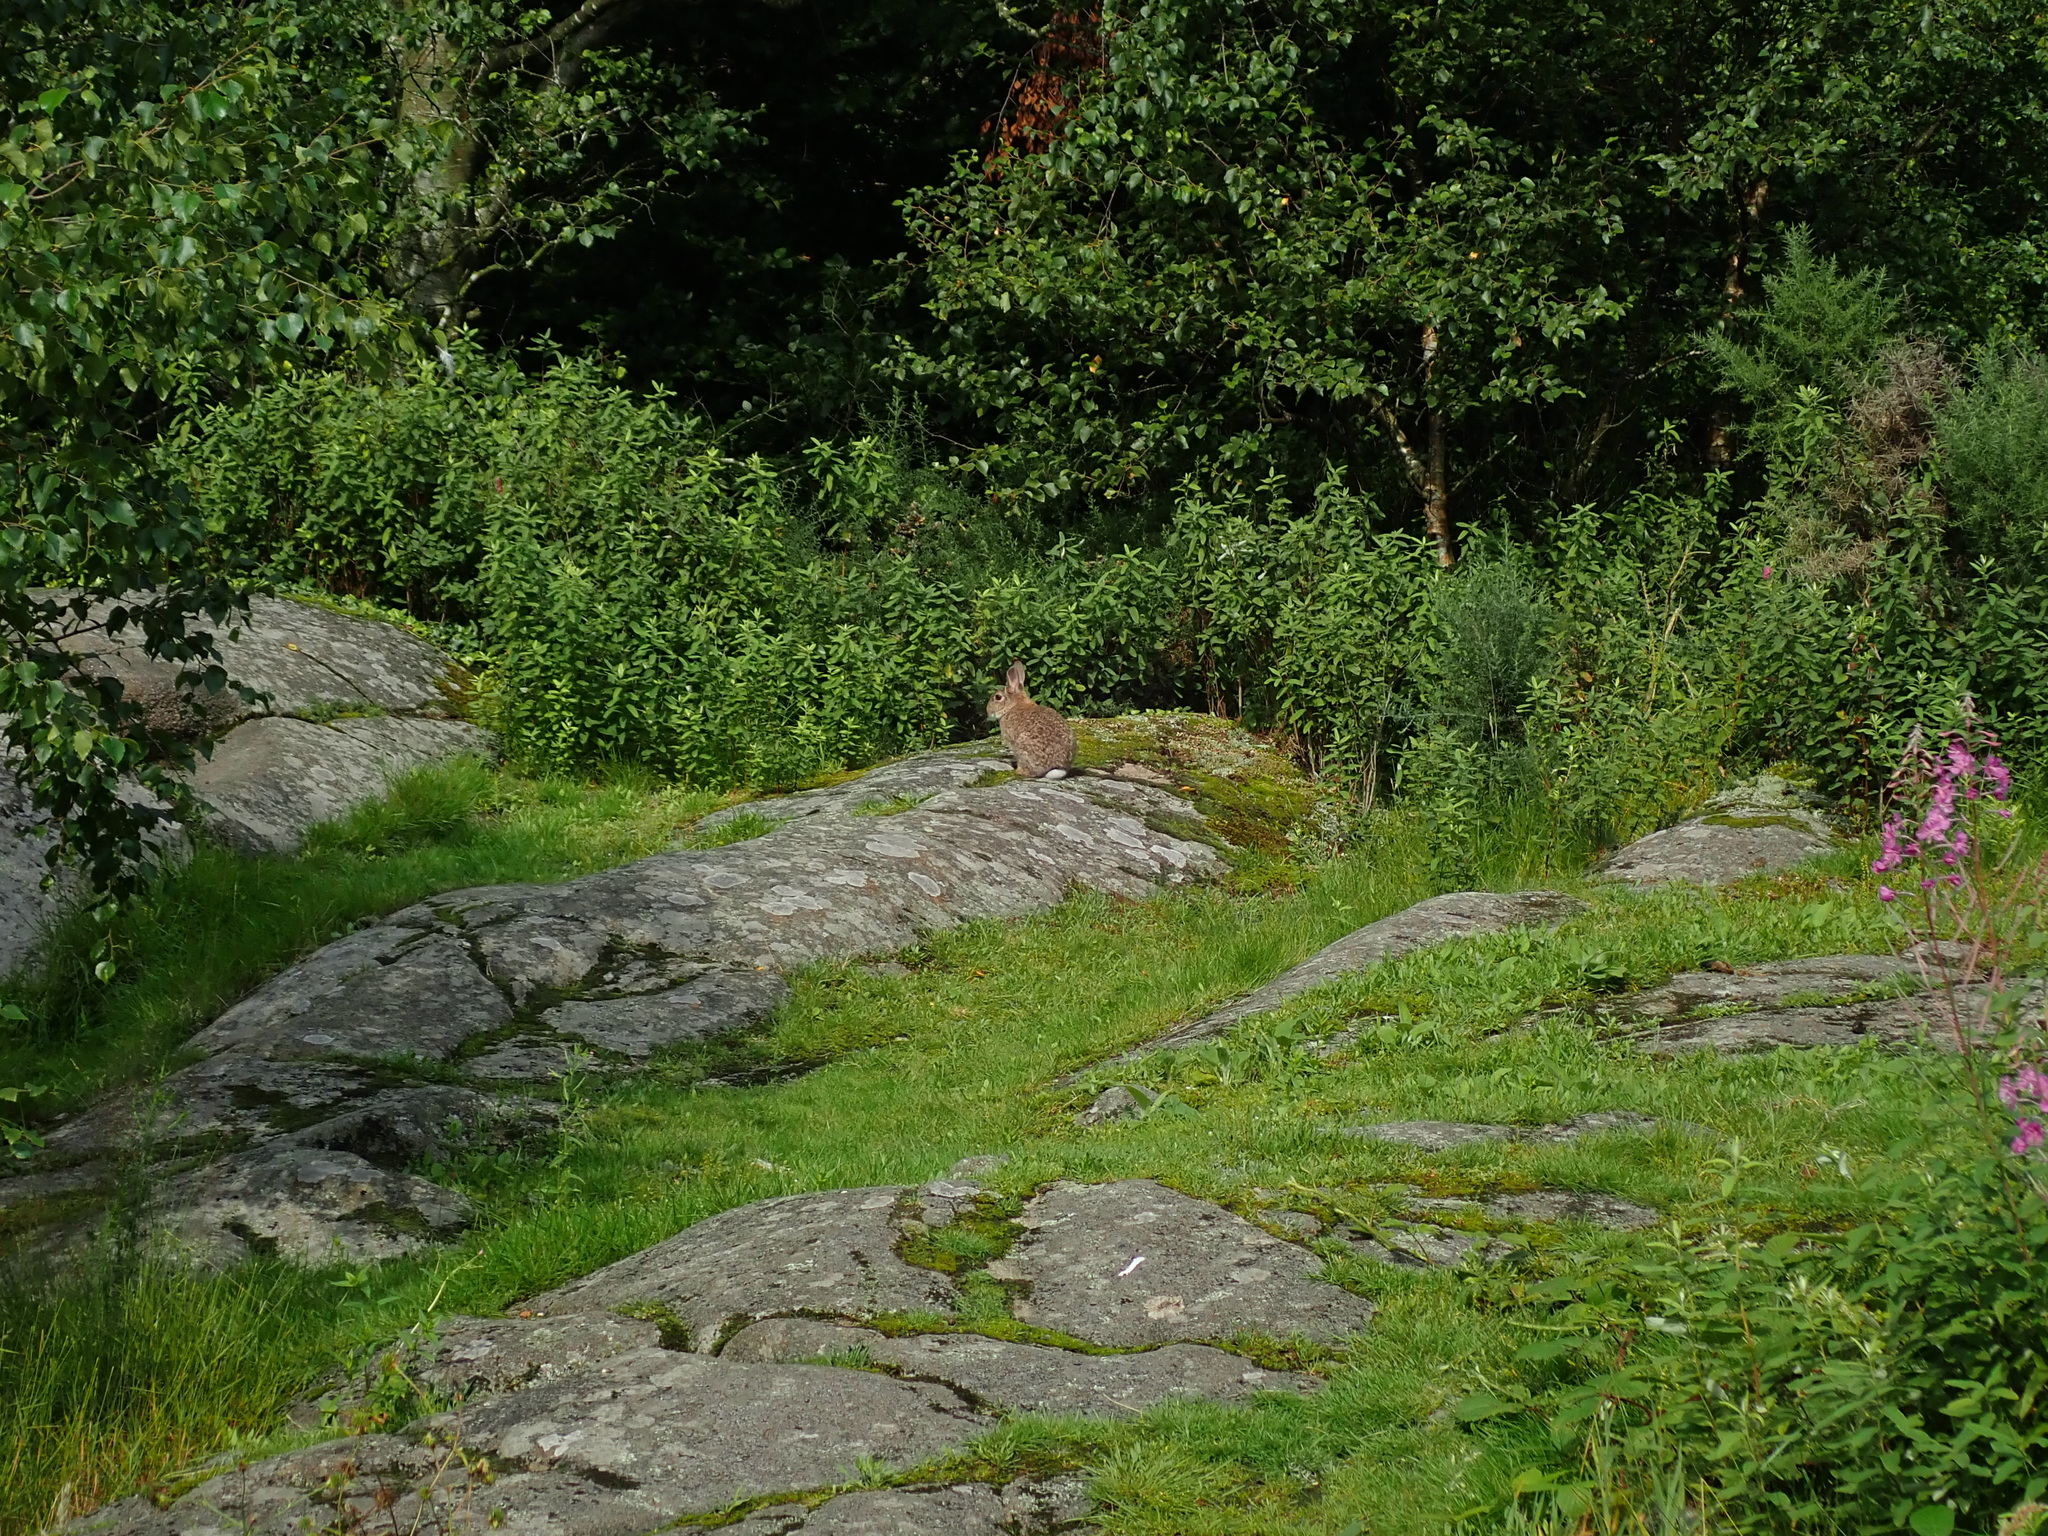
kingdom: Animalia
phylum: Chordata
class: Mammalia
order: Lagomorpha
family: Leporidae
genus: Oryctolagus
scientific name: Oryctolagus cuniculus
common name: European rabbit
